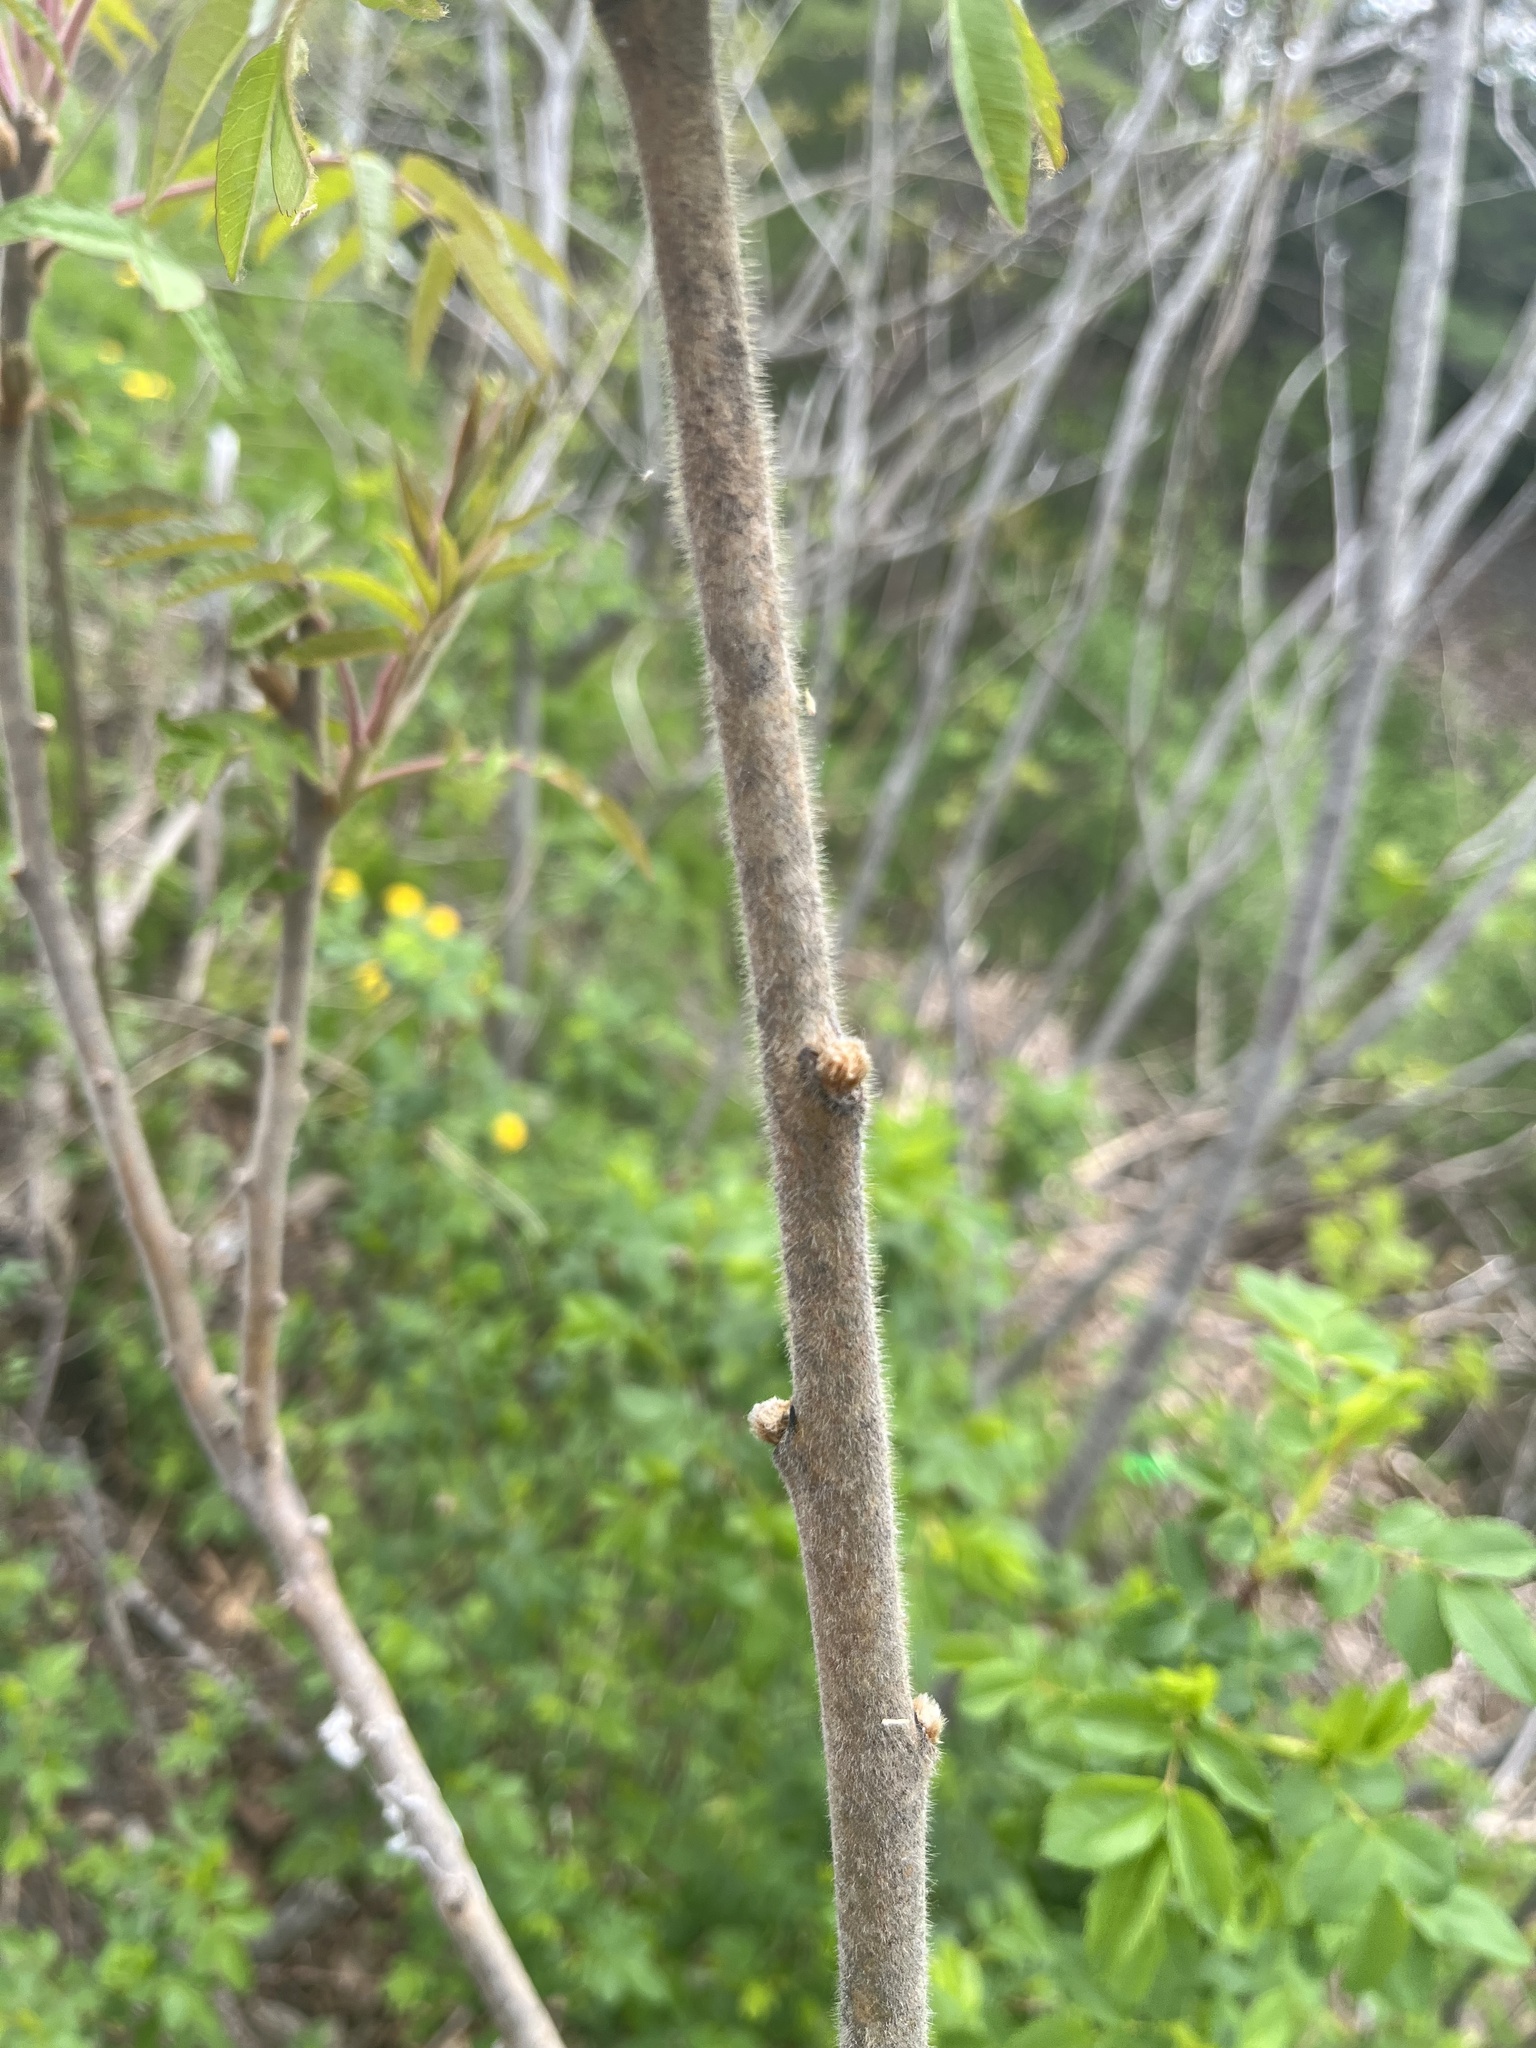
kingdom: Plantae
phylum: Tracheophyta
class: Magnoliopsida
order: Sapindales
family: Anacardiaceae
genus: Rhus
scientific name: Rhus typhina
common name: Staghorn sumac
